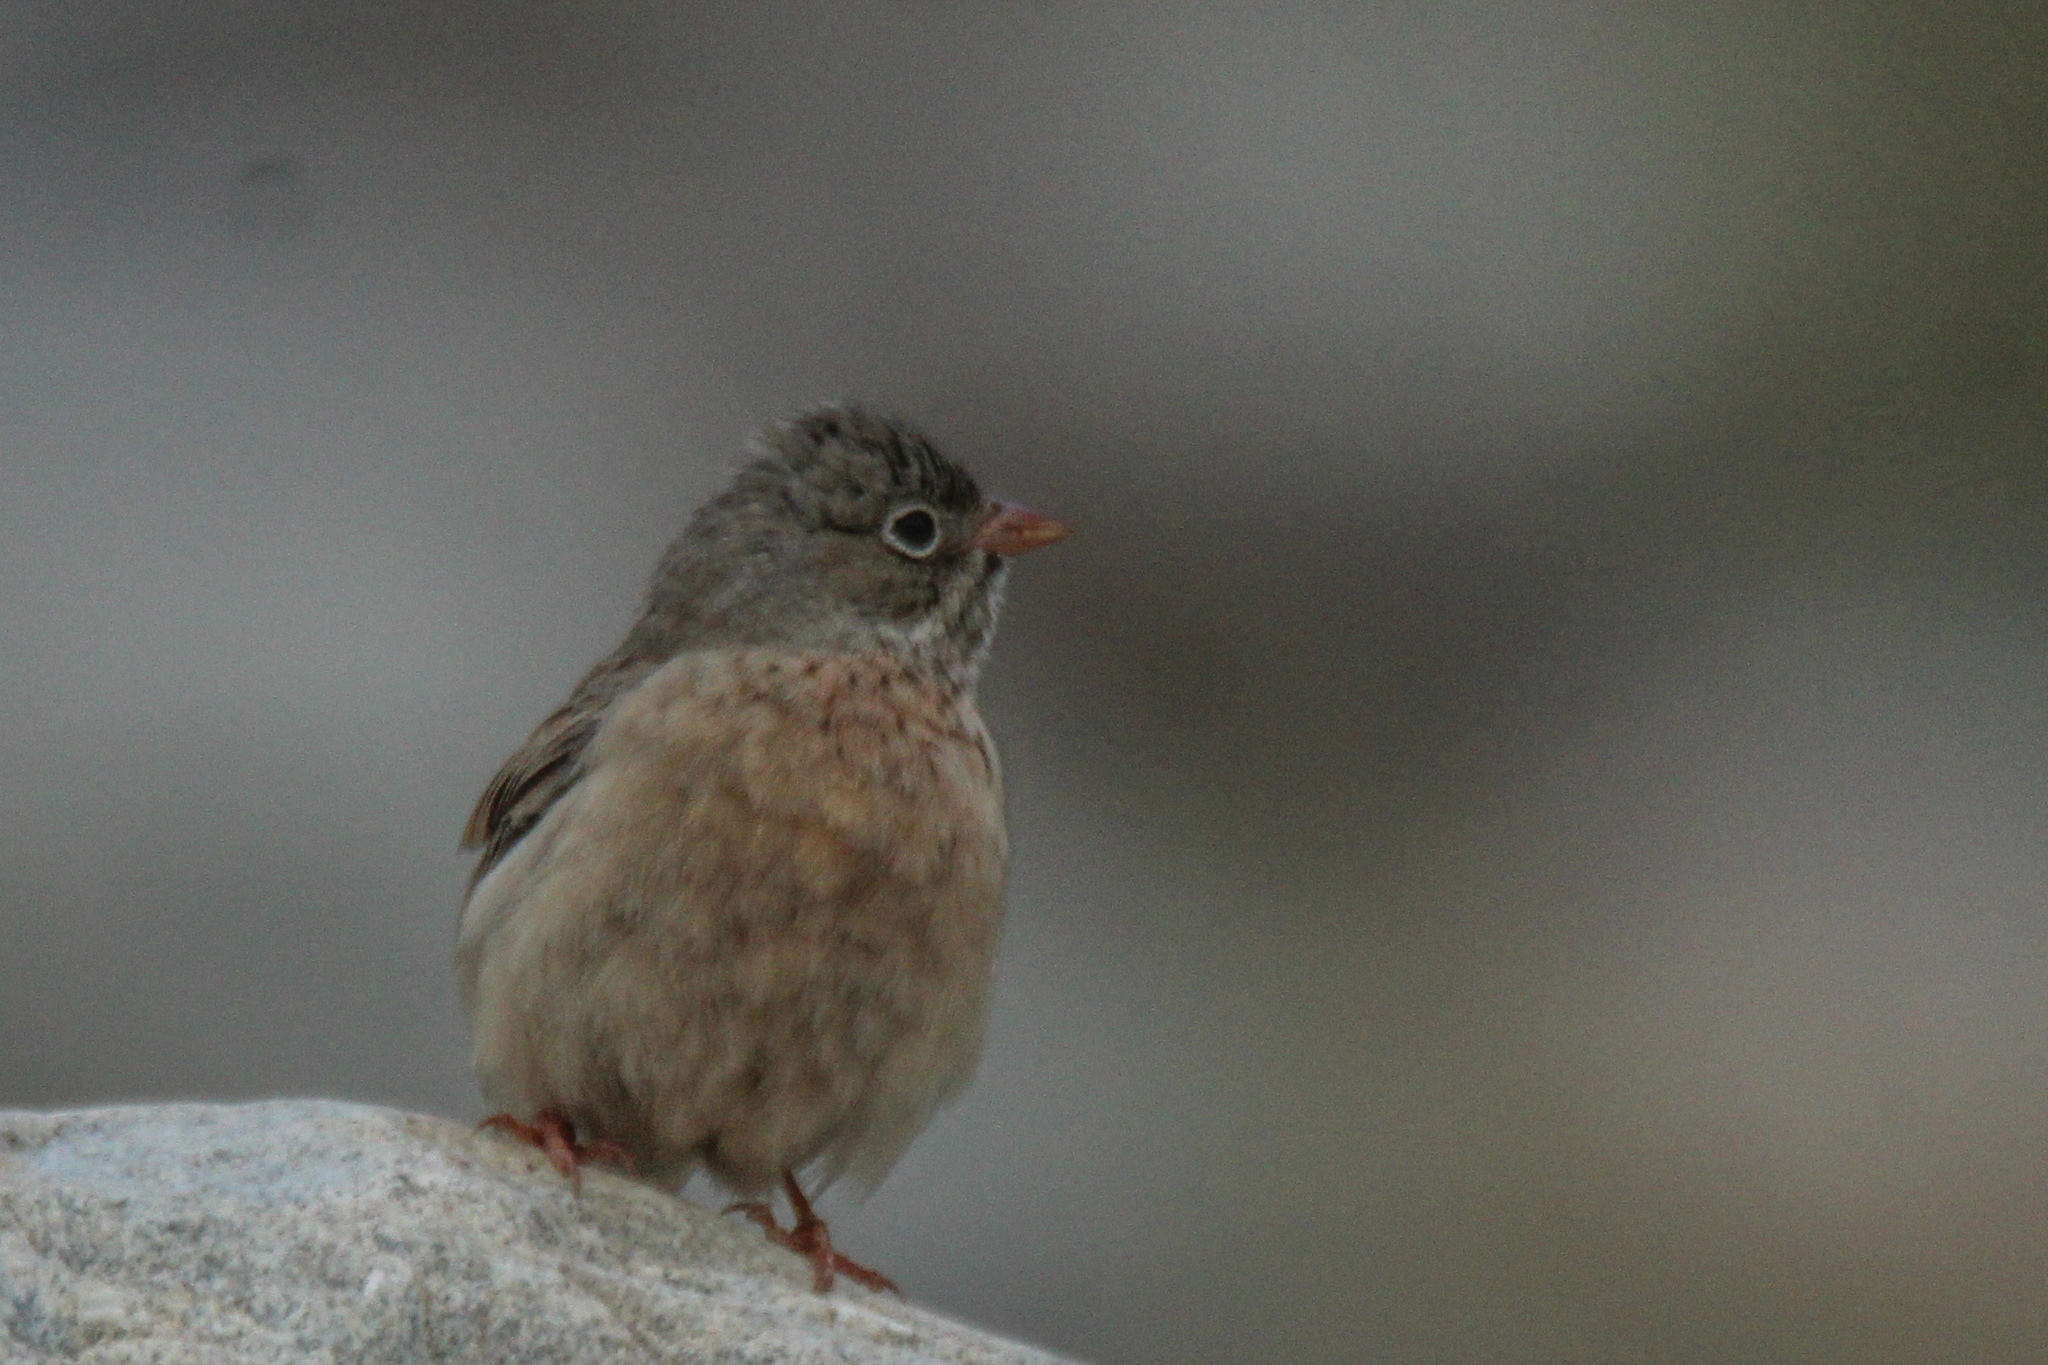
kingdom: Animalia
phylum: Chordata
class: Aves
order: Passeriformes
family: Emberizidae
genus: Emberiza
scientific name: Emberiza buchanani
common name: Grey-necked bunting
